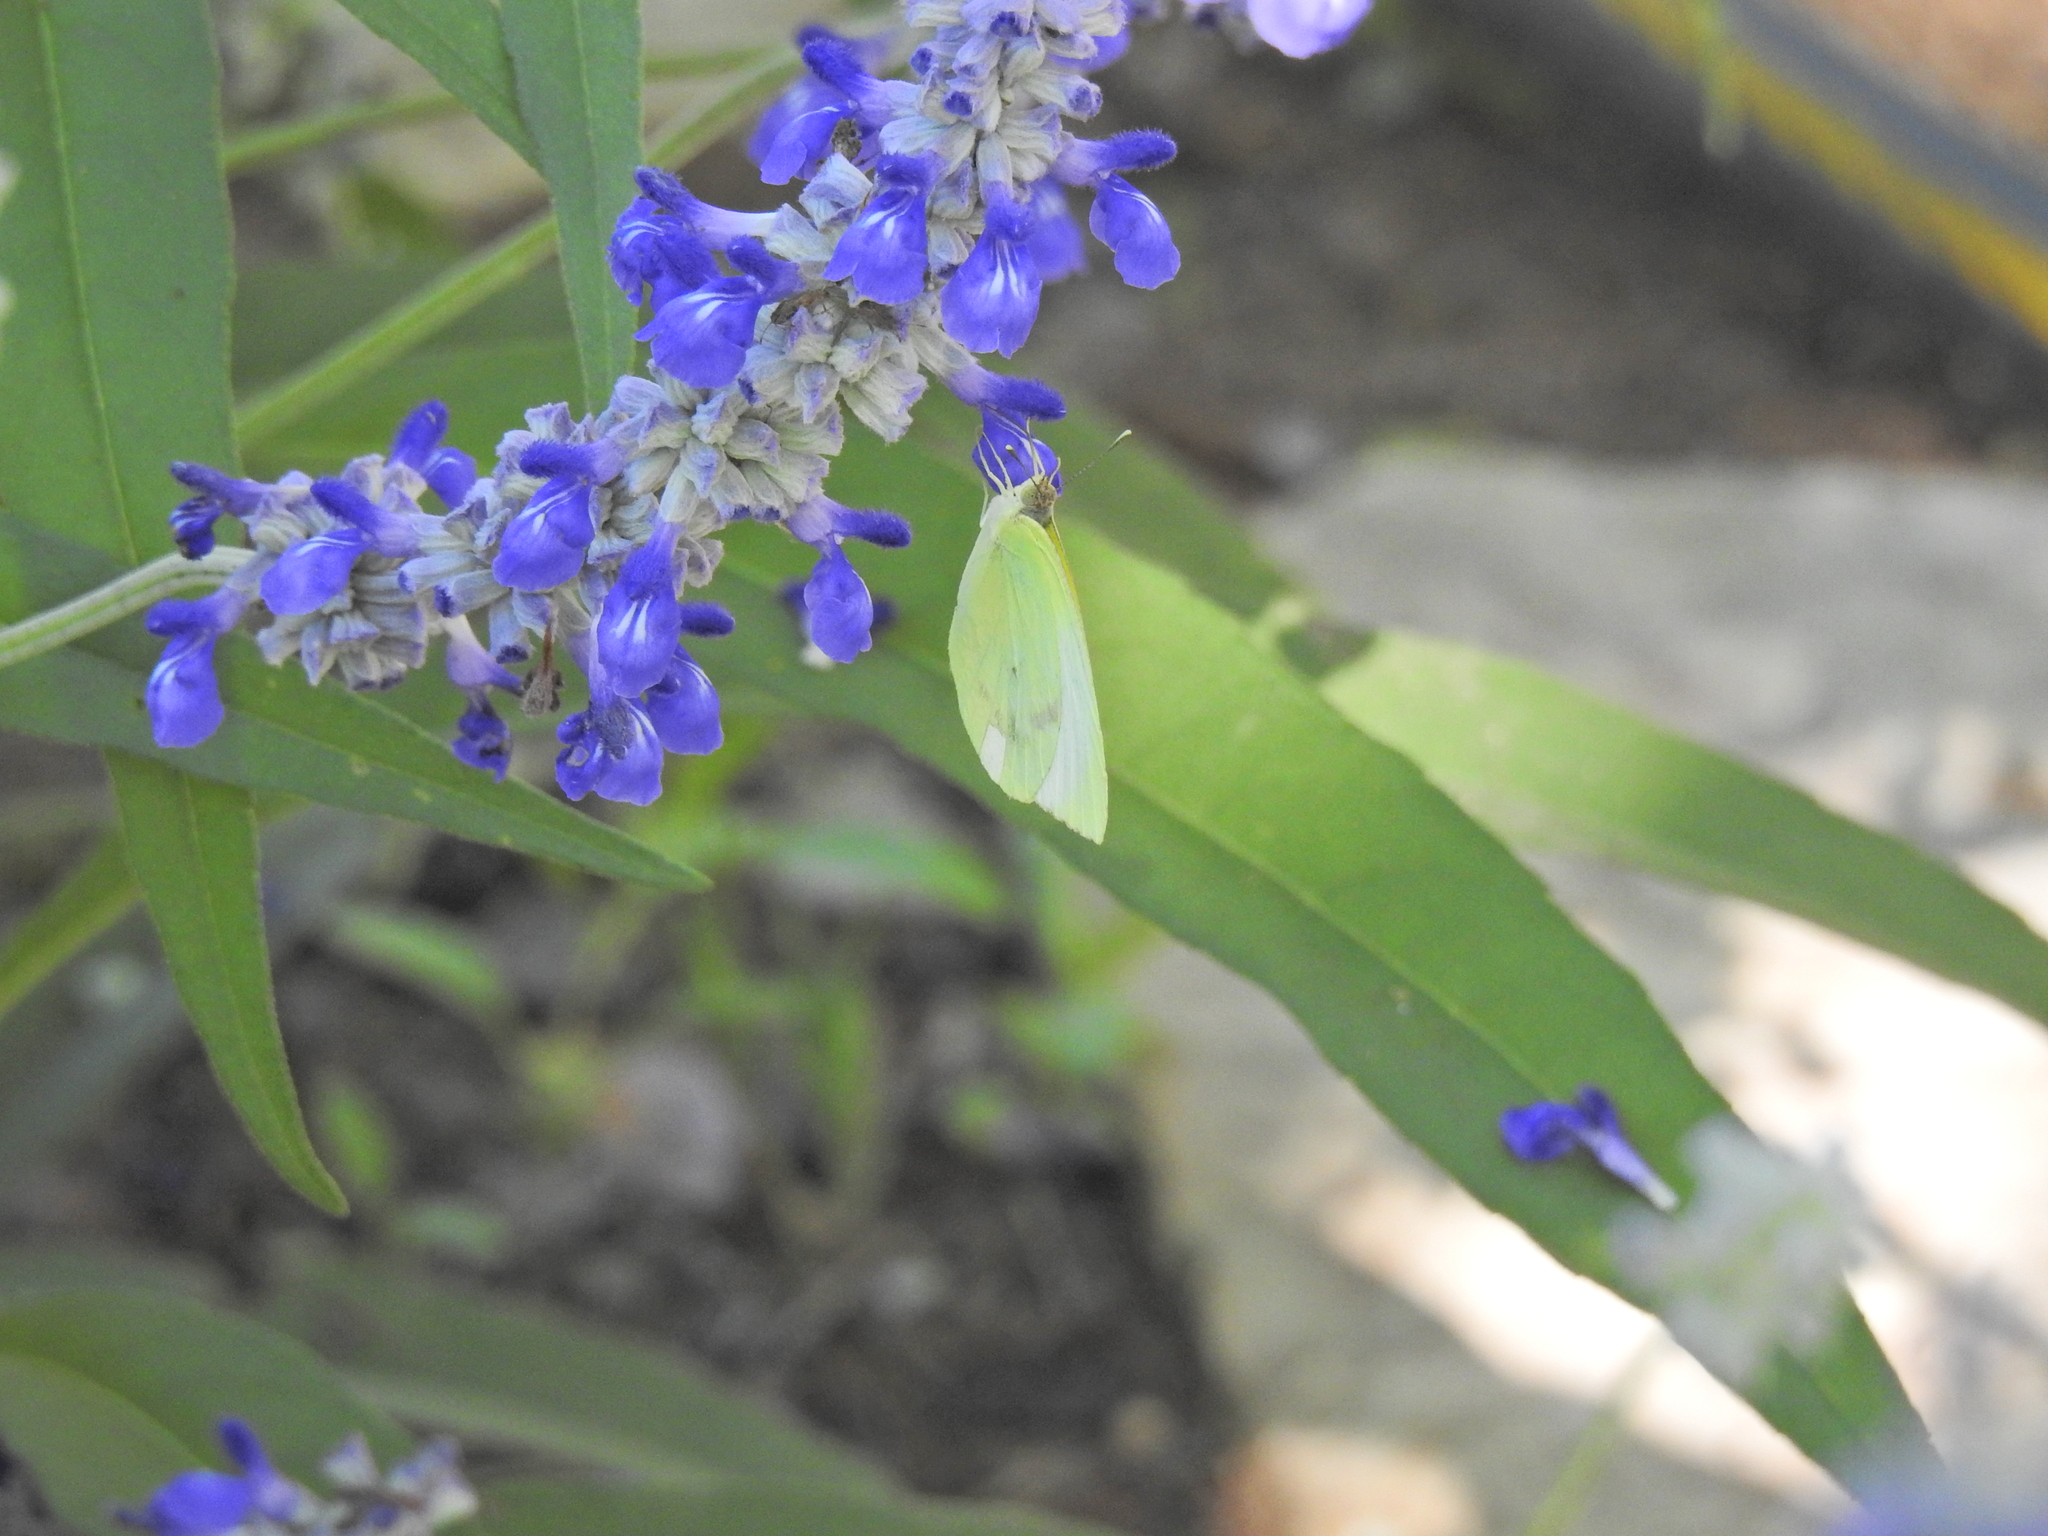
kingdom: Animalia
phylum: Arthropoda
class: Insecta
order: Lepidoptera
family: Pieridae
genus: Kricogonia
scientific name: Kricogonia lyside
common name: Guayacan sulphur,
